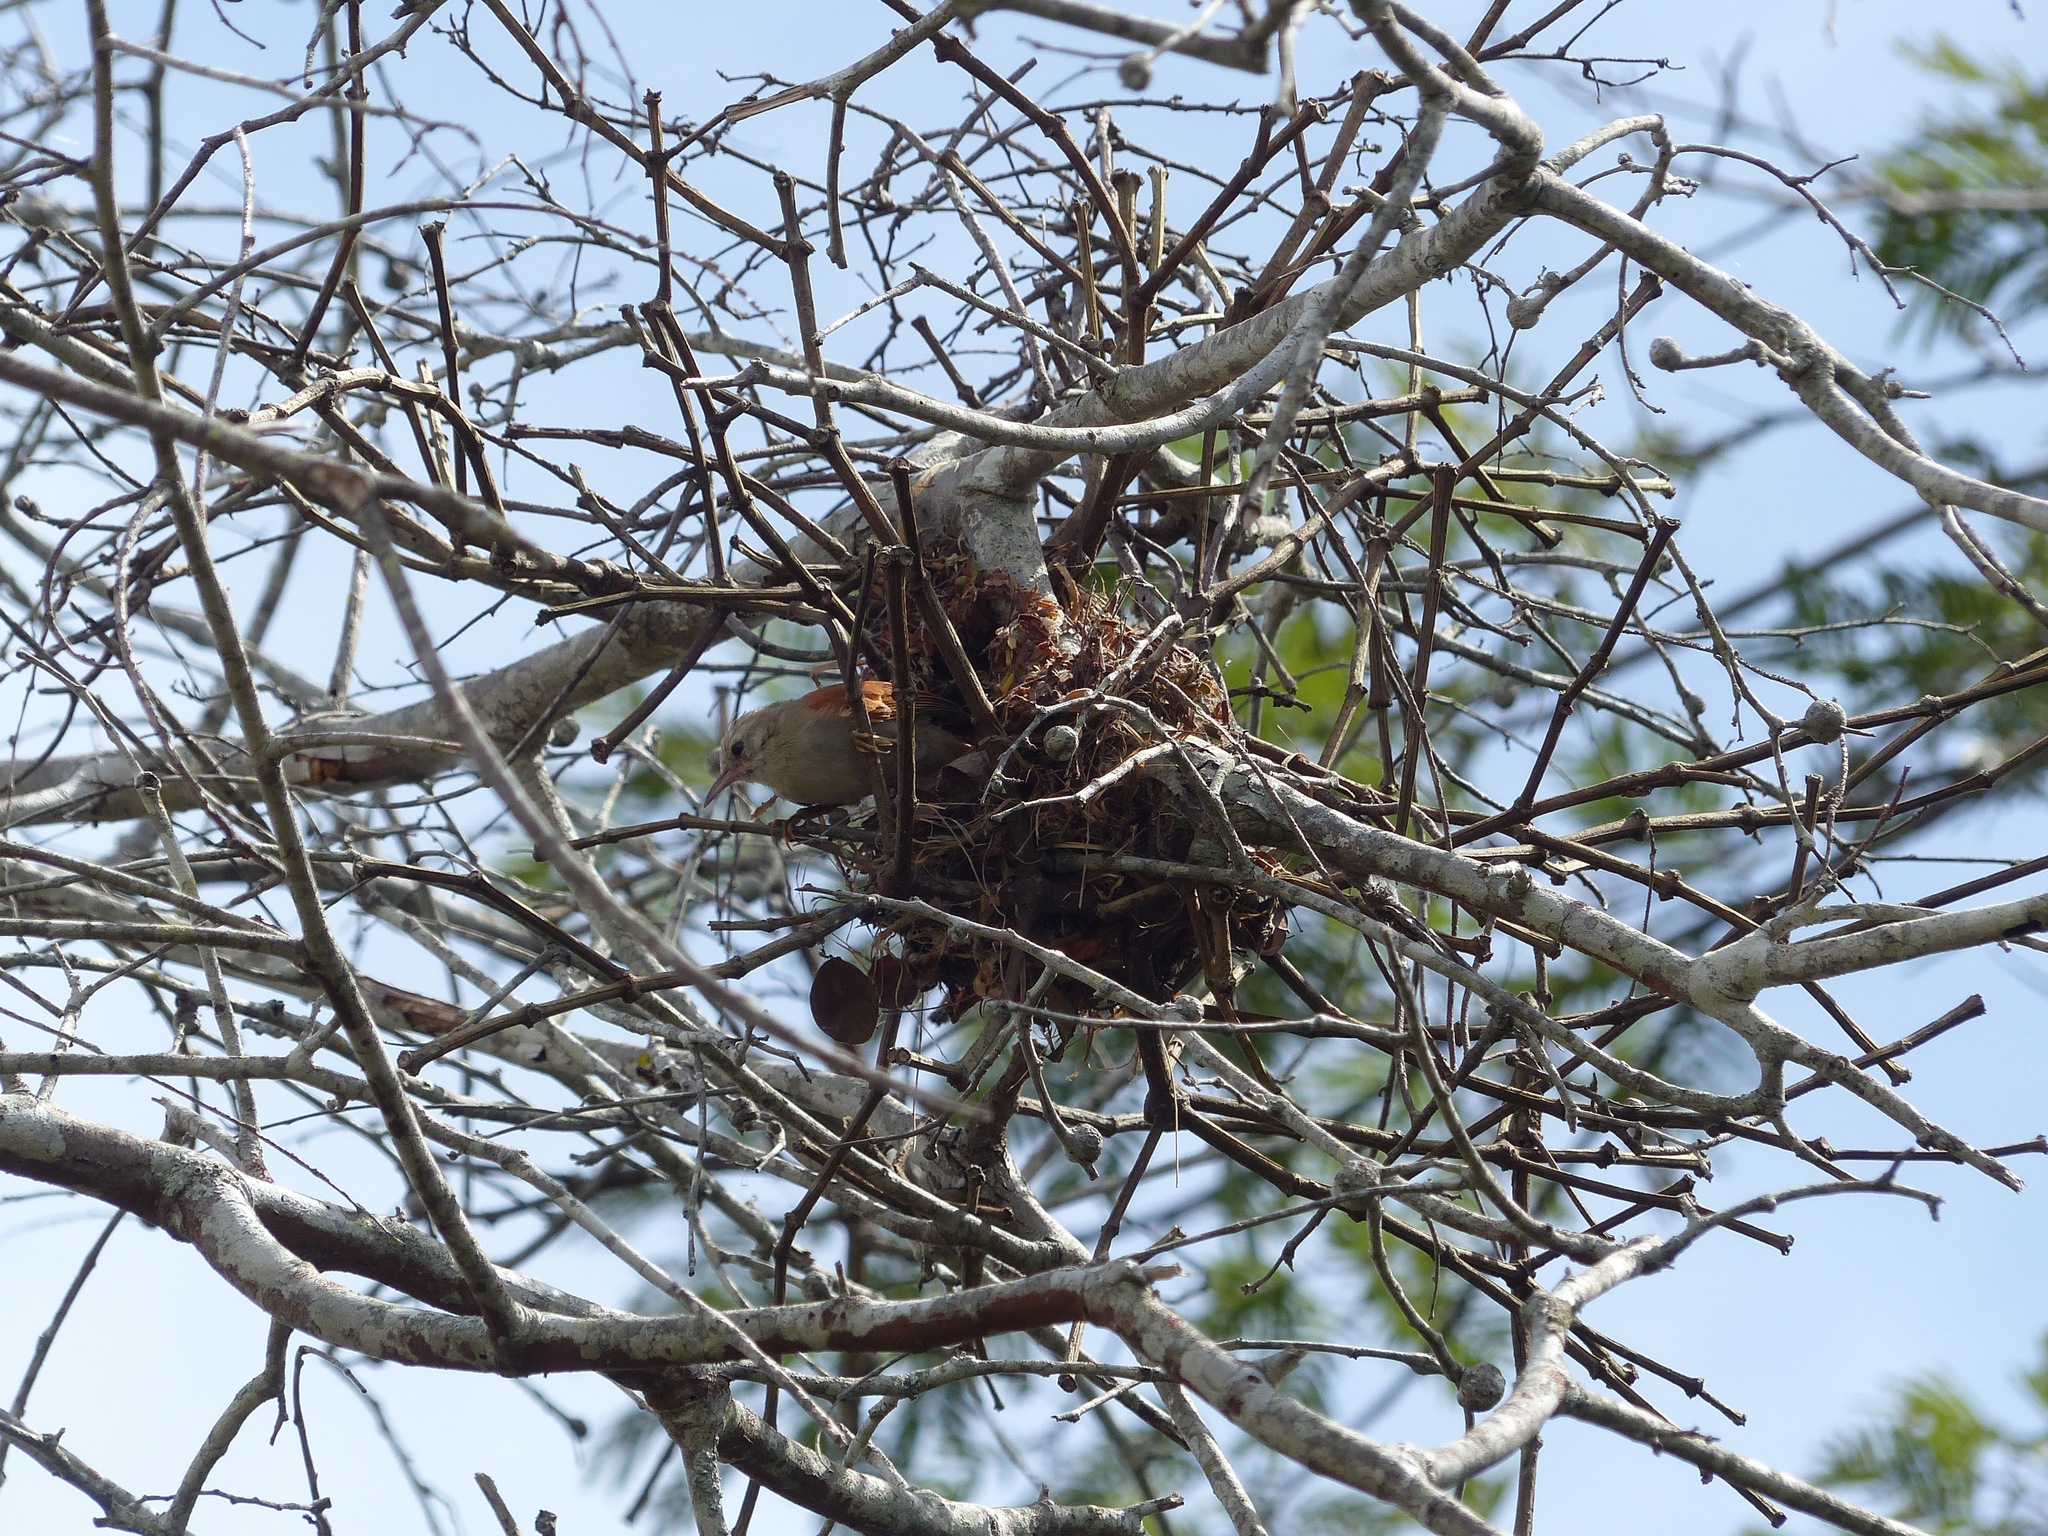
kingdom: Animalia
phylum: Chordata
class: Aves
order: Passeriformes
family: Furnariidae
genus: Cranioleuca
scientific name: Cranioleuca semicinerea
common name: Grey-headed spinetail
